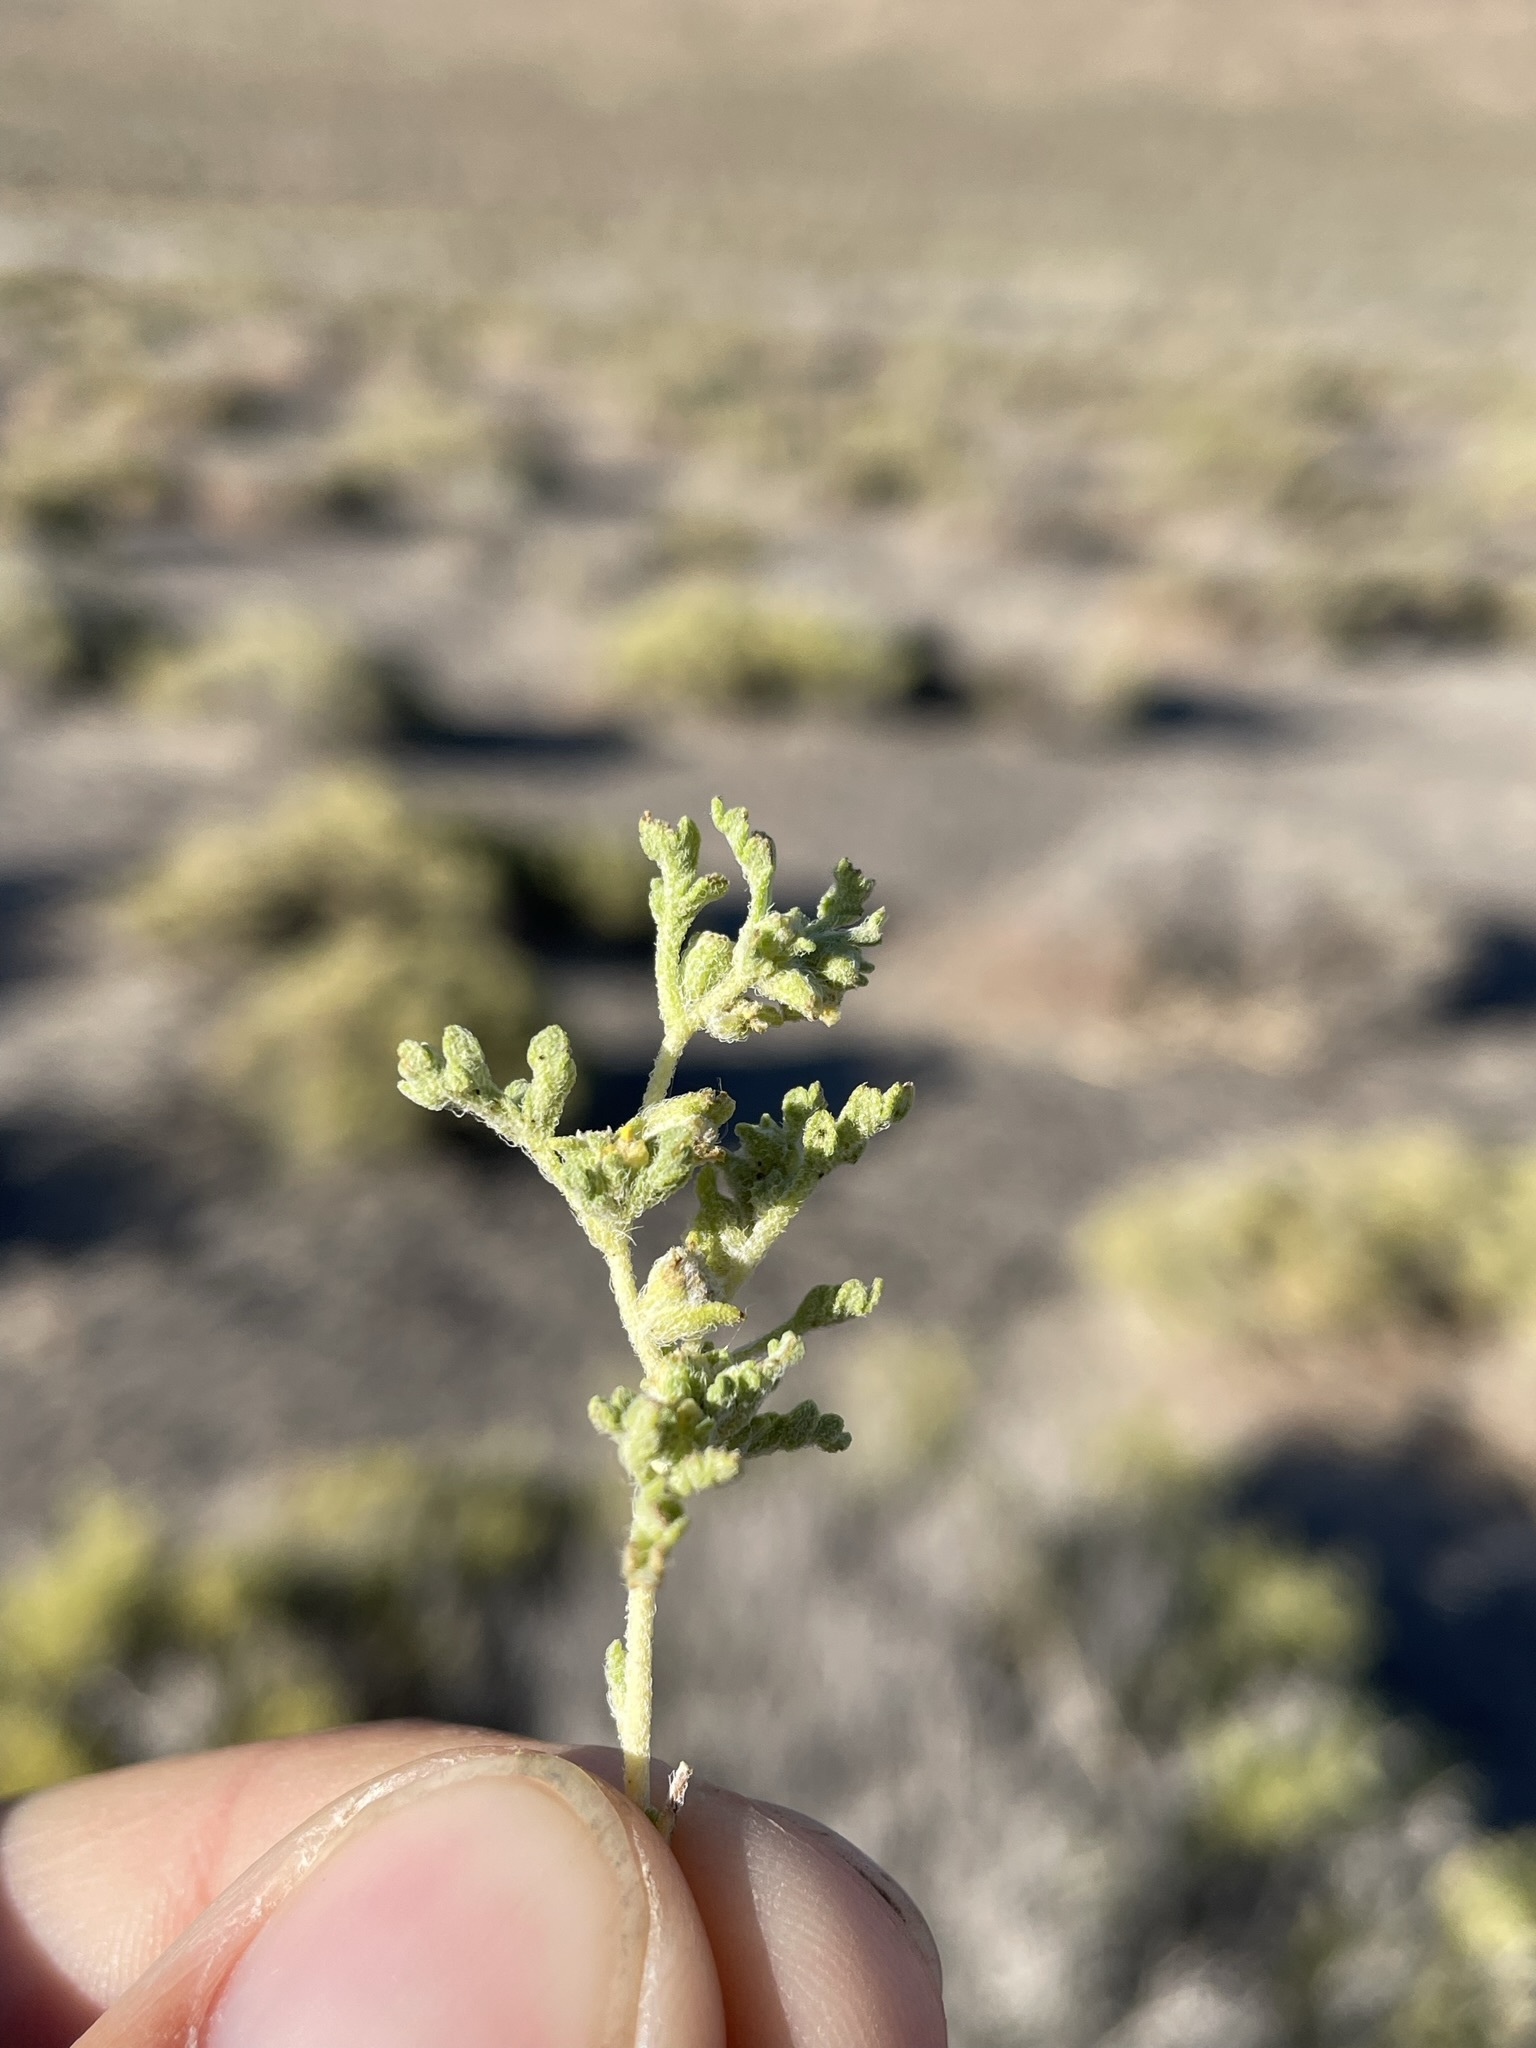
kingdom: Plantae
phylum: Tracheophyta
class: Magnoliopsida
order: Asterales
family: Asteraceae
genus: Euphrosyne
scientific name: Euphrosyne nevadensis
